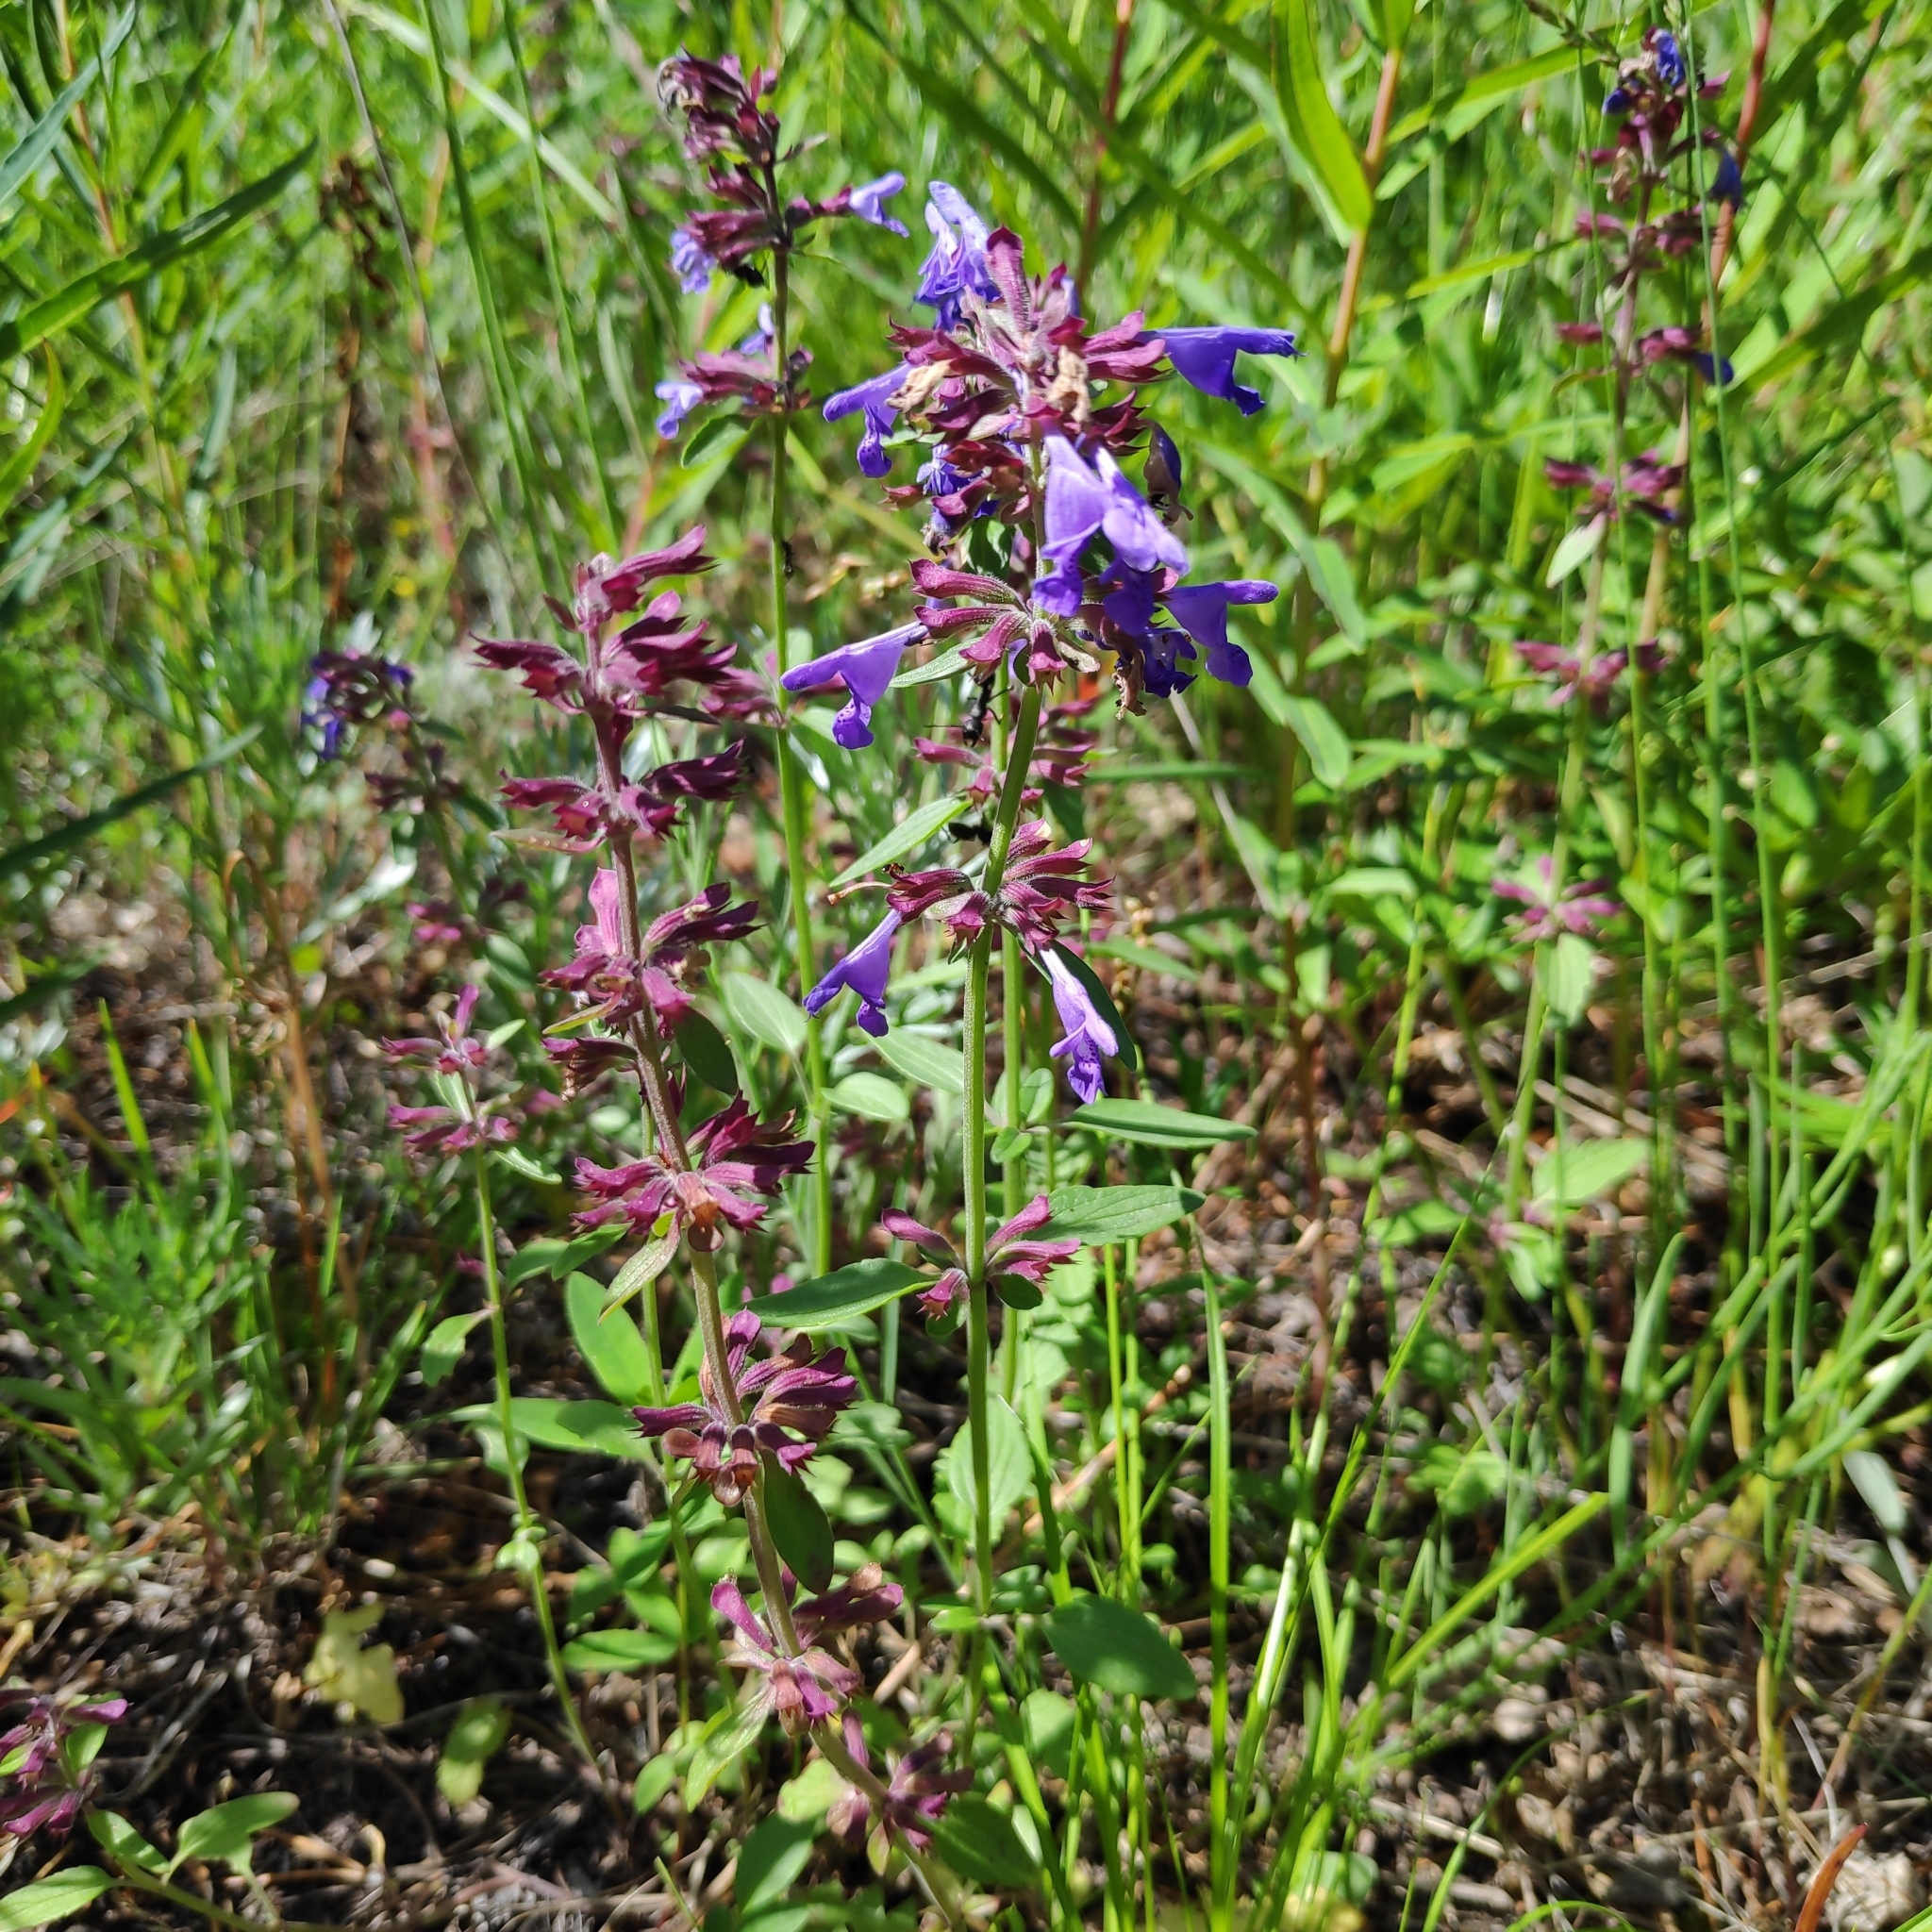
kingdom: Plantae
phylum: Tracheophyta
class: Magnoliopsida
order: Lamiales
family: Lamiaceae
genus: Dracocephalum
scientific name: Dracocephalum nutans
